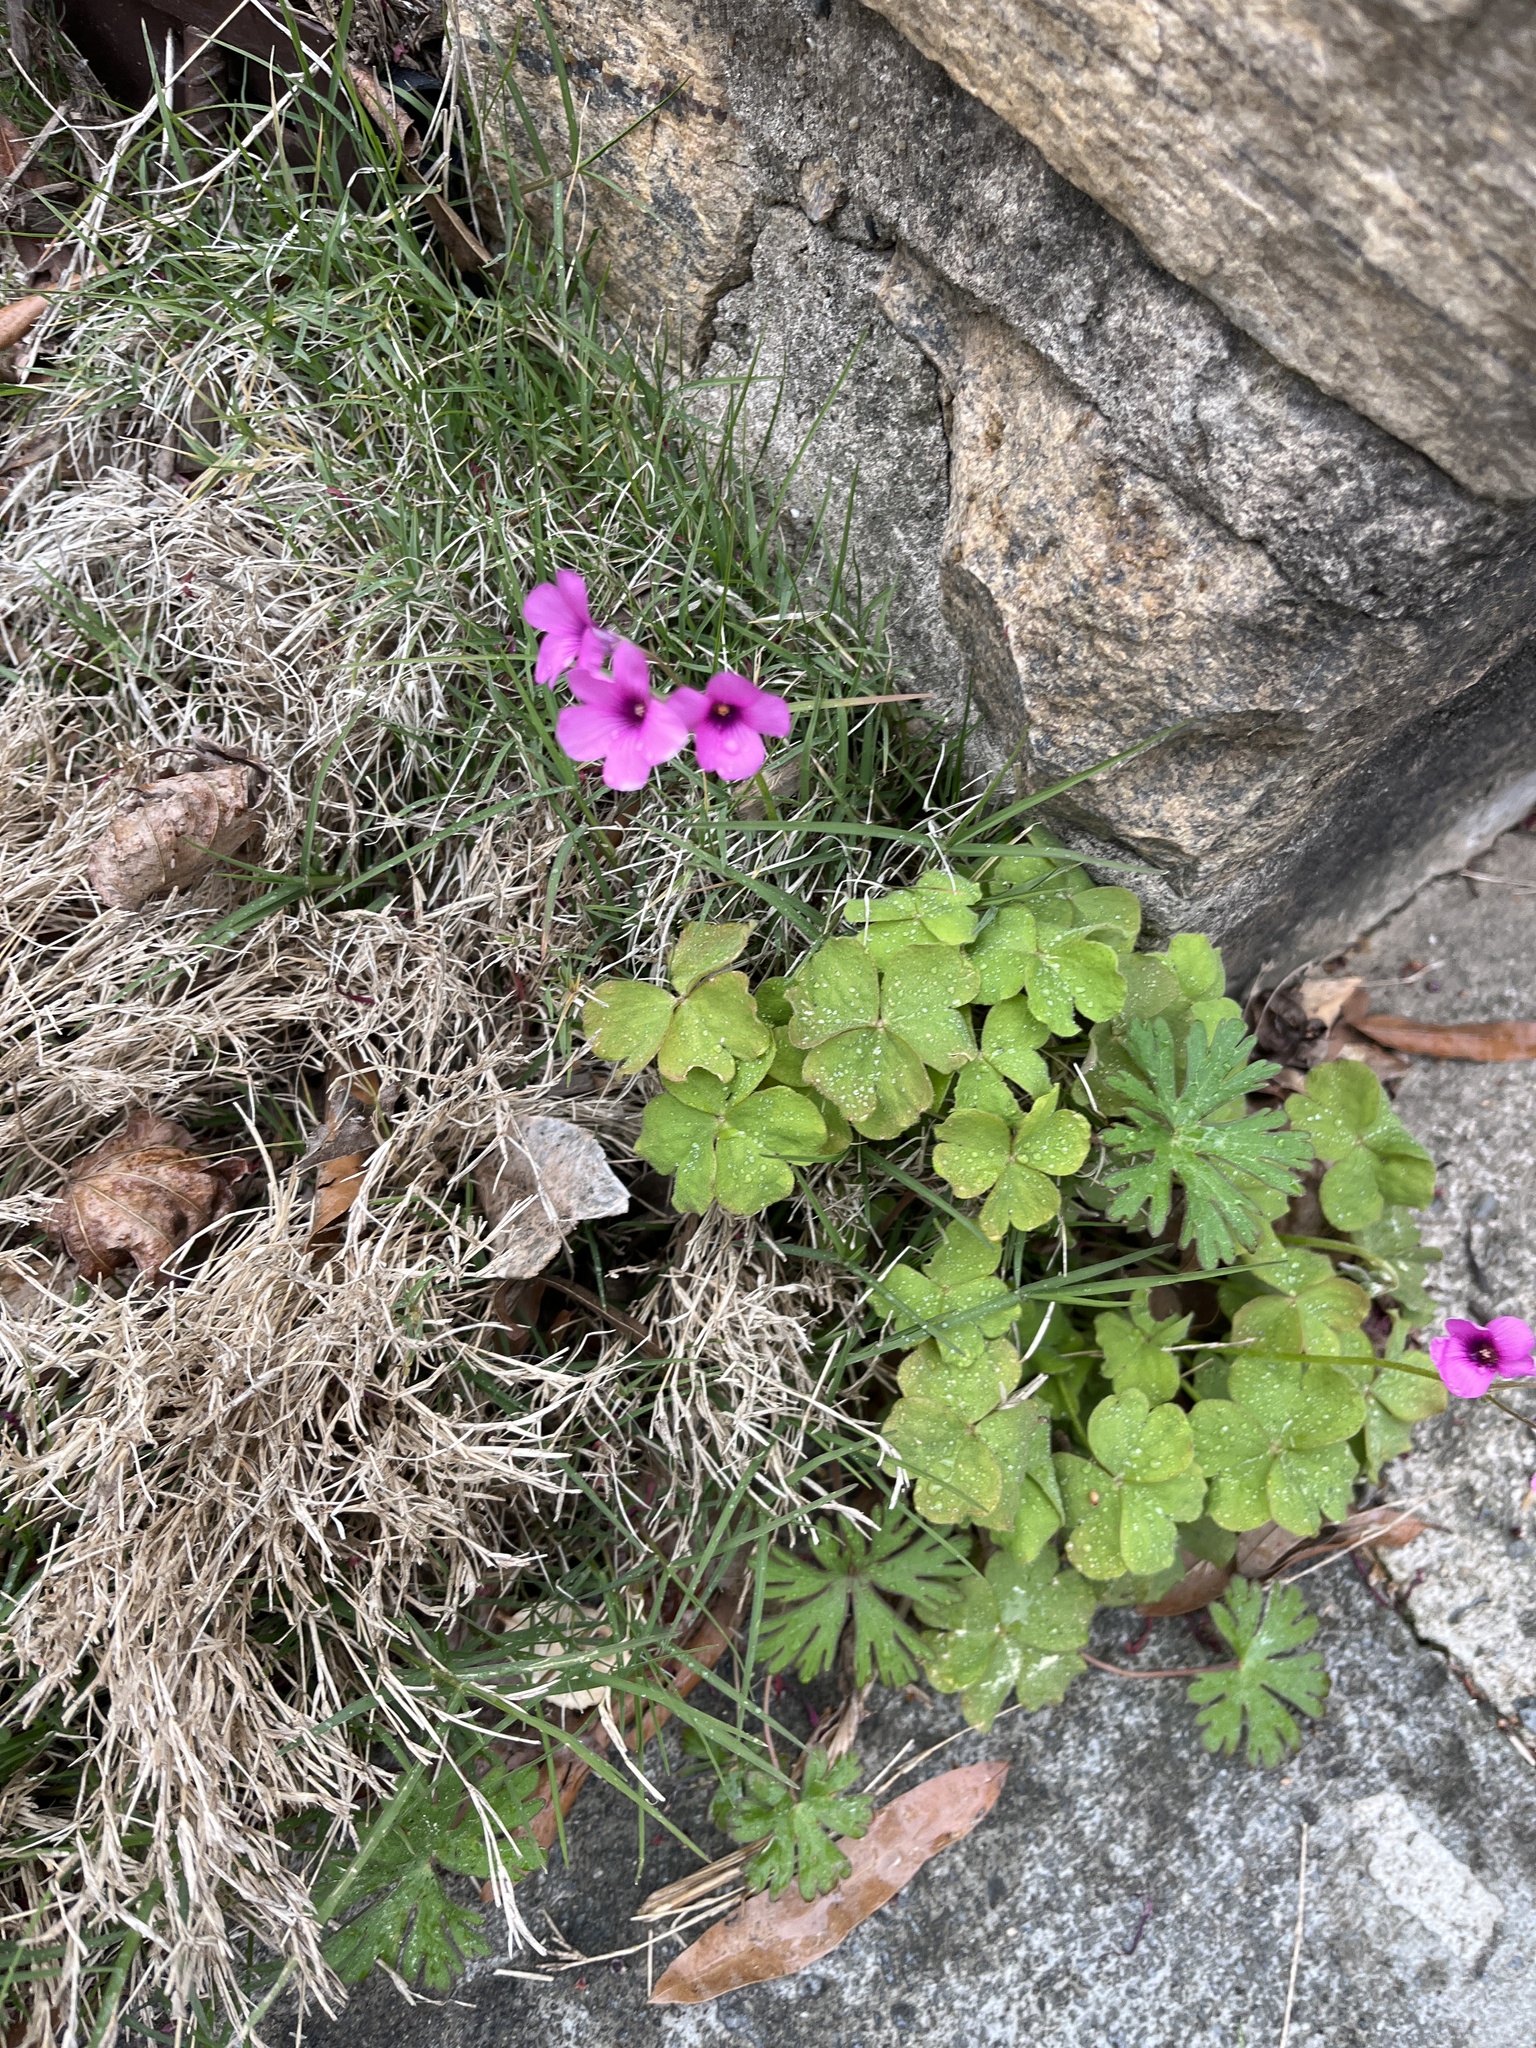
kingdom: Plantae
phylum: Tracheophyta
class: Magnoliopsida
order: Oxalidales
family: Oxalidaceae
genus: Oxalis
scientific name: Oxalis articulata
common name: Pink-sorrel
